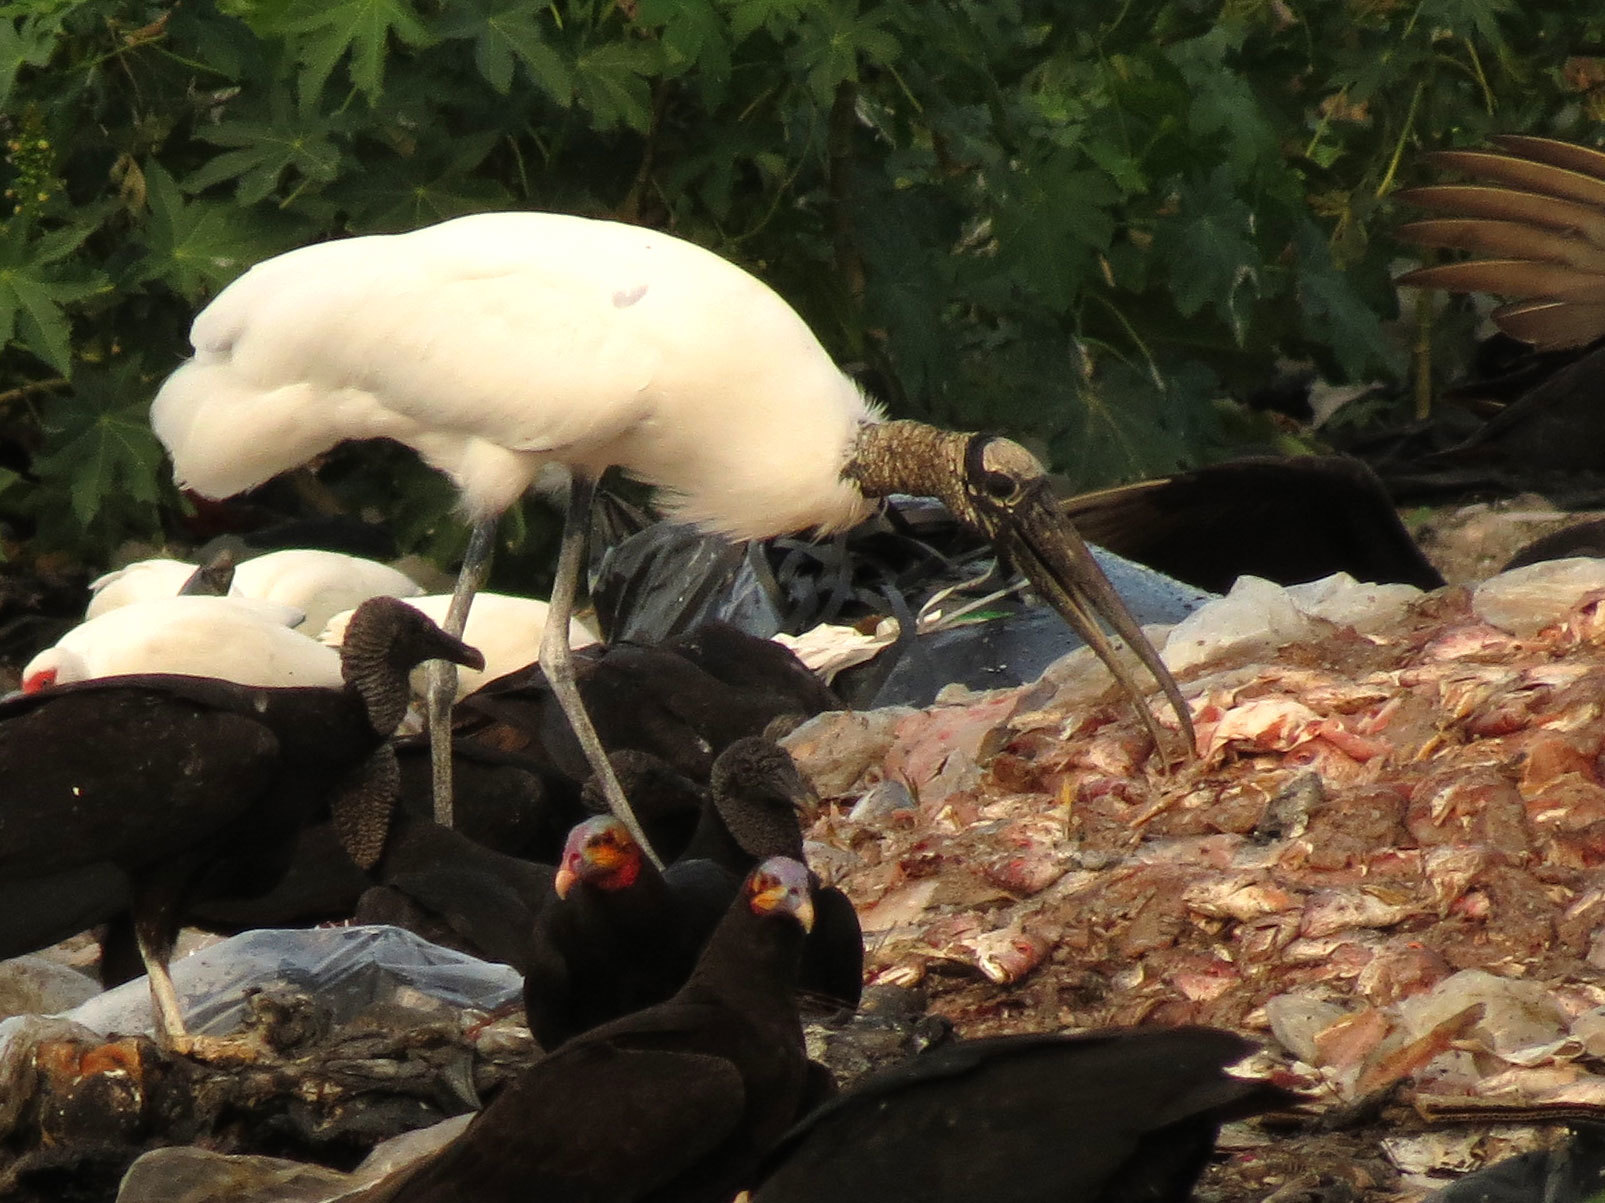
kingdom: Animalia
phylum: Chordata
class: Aves
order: Ciconiiformes
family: Ciconiidae
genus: Mycteria
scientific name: Mycteria americana
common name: Wood stork
